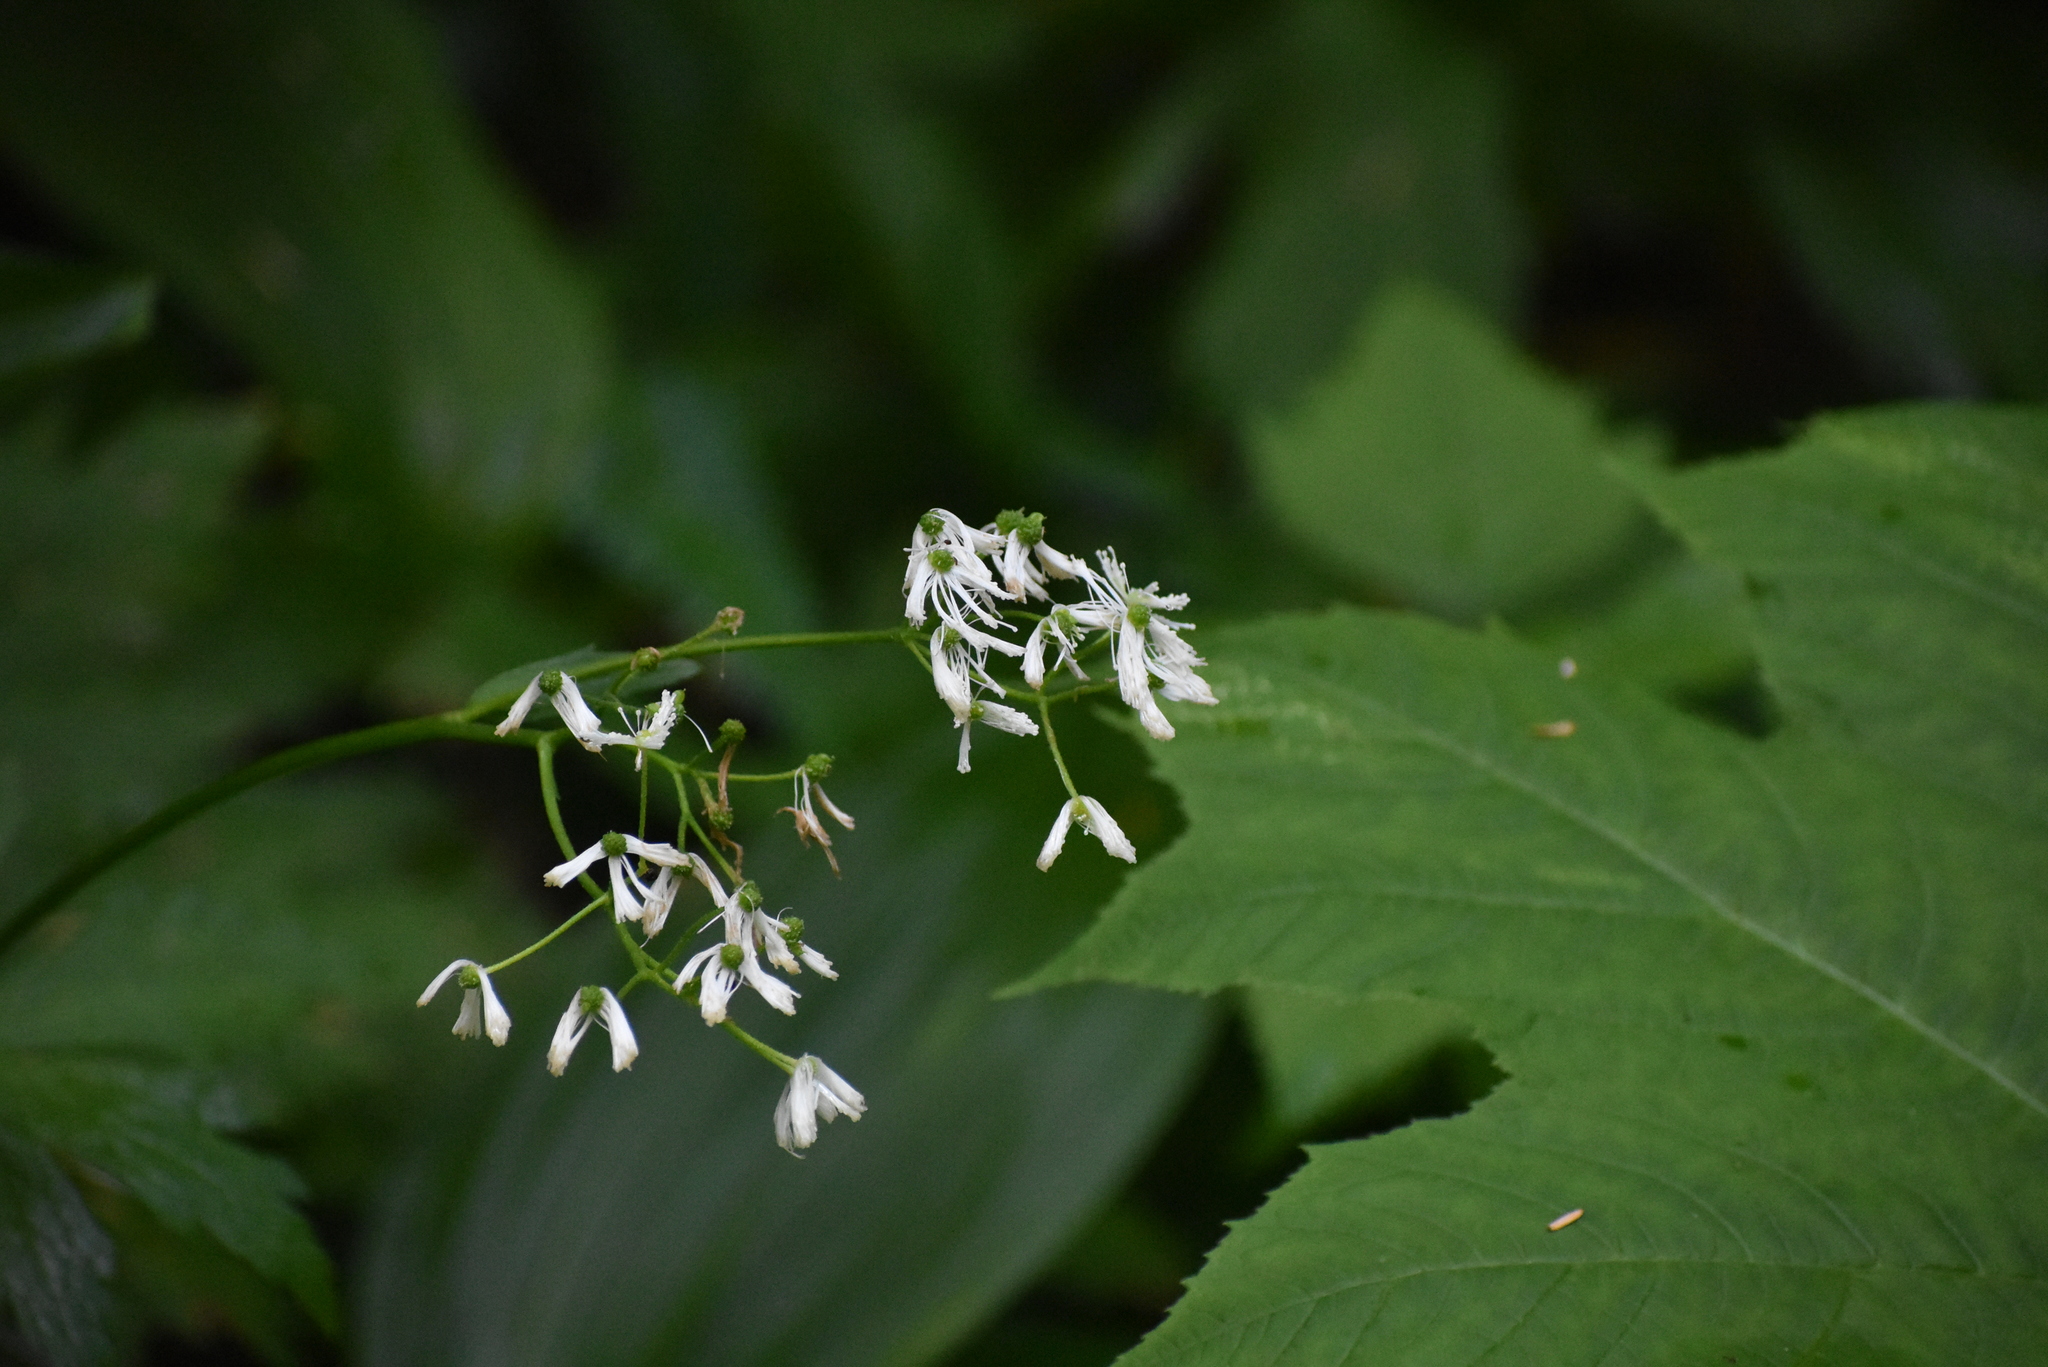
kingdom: Plantae
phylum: Tracheophyta
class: Magnoliopsida
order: Ranunculales
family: Ranunculaceae
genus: Trautvetteria
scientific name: Trautvetteria carolinensis
